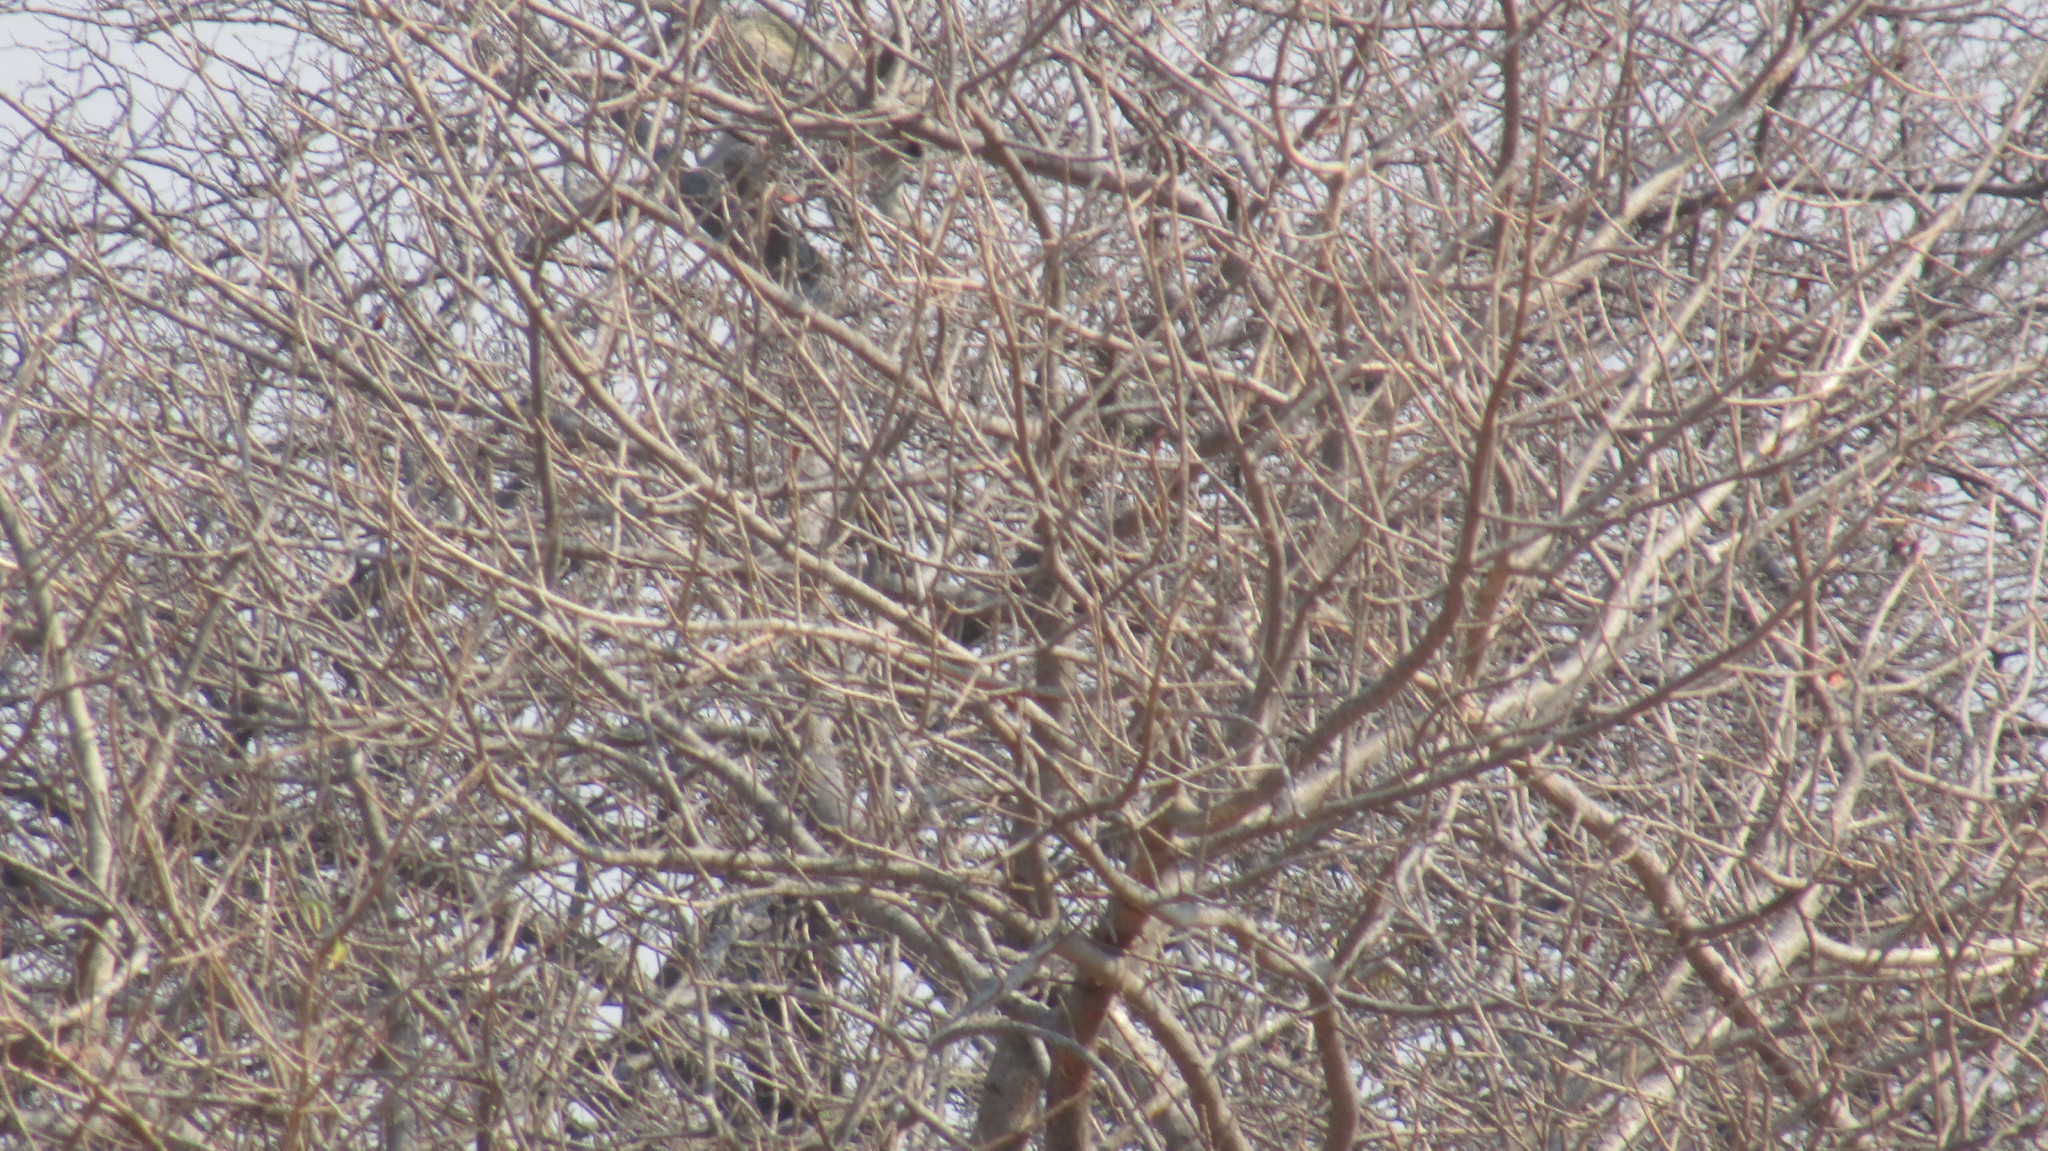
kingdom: Animalia
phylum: Chordata
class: Mammalia
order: Primates
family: Cercopithecidae
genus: Chlorocebus
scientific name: Chlorocebus pygerythrus
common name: Vervet monkey
